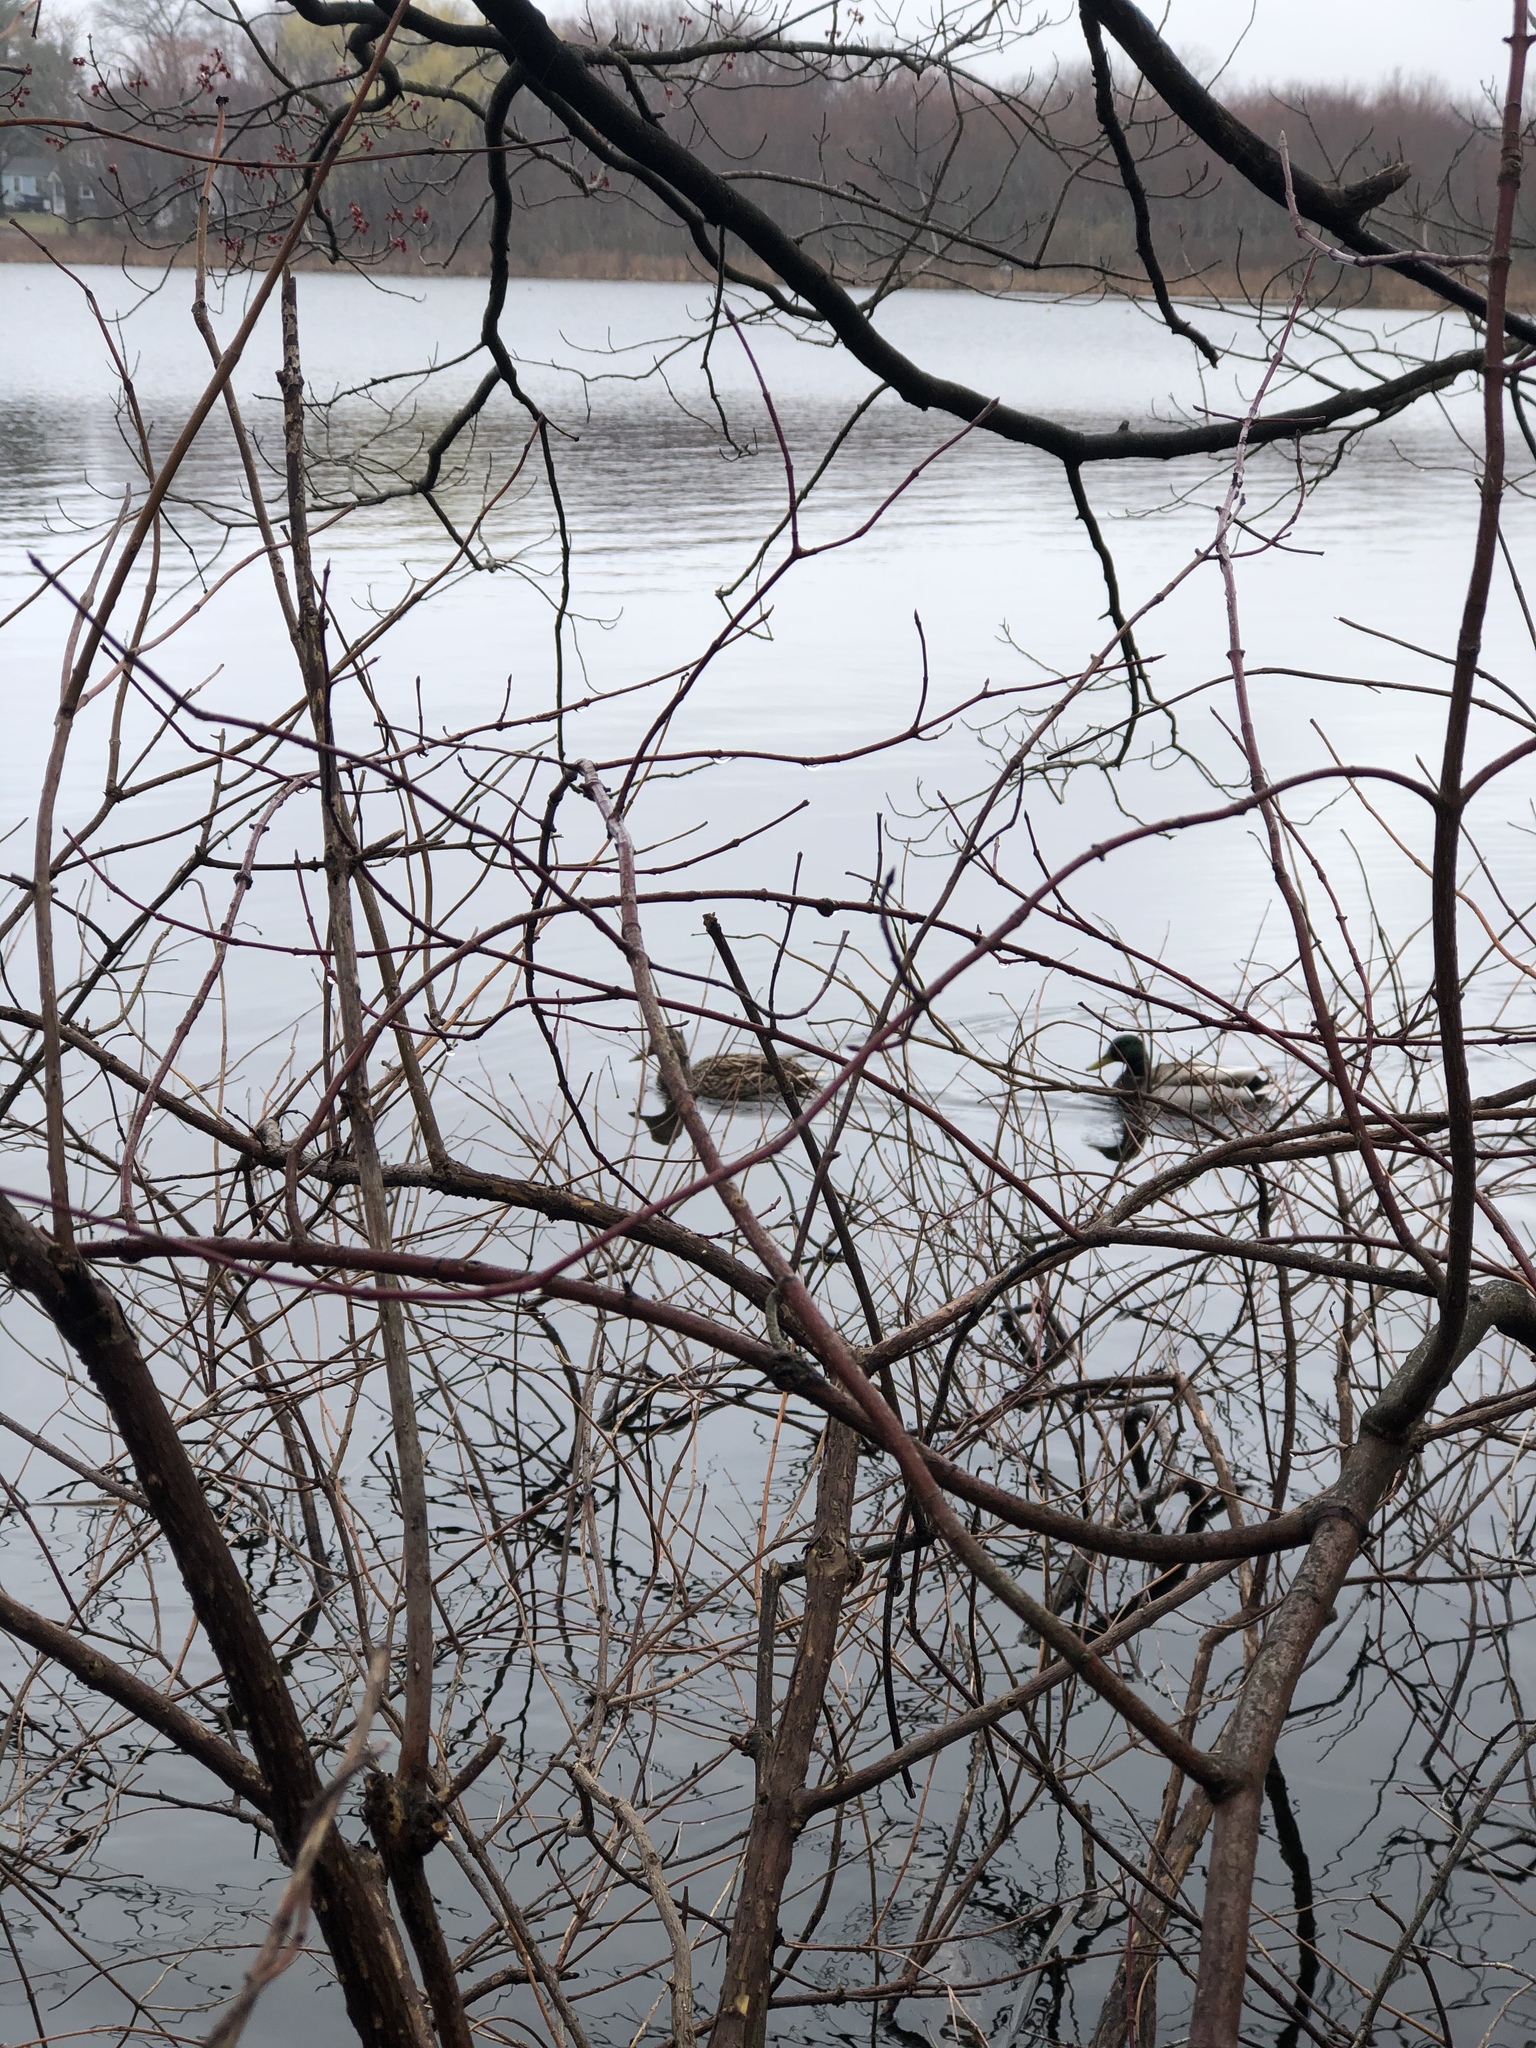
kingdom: Animalia
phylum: Chordata
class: Aves
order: Anseriformes
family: Anatidae
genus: Anas
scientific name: Anas platyrhynchos
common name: Mallard
